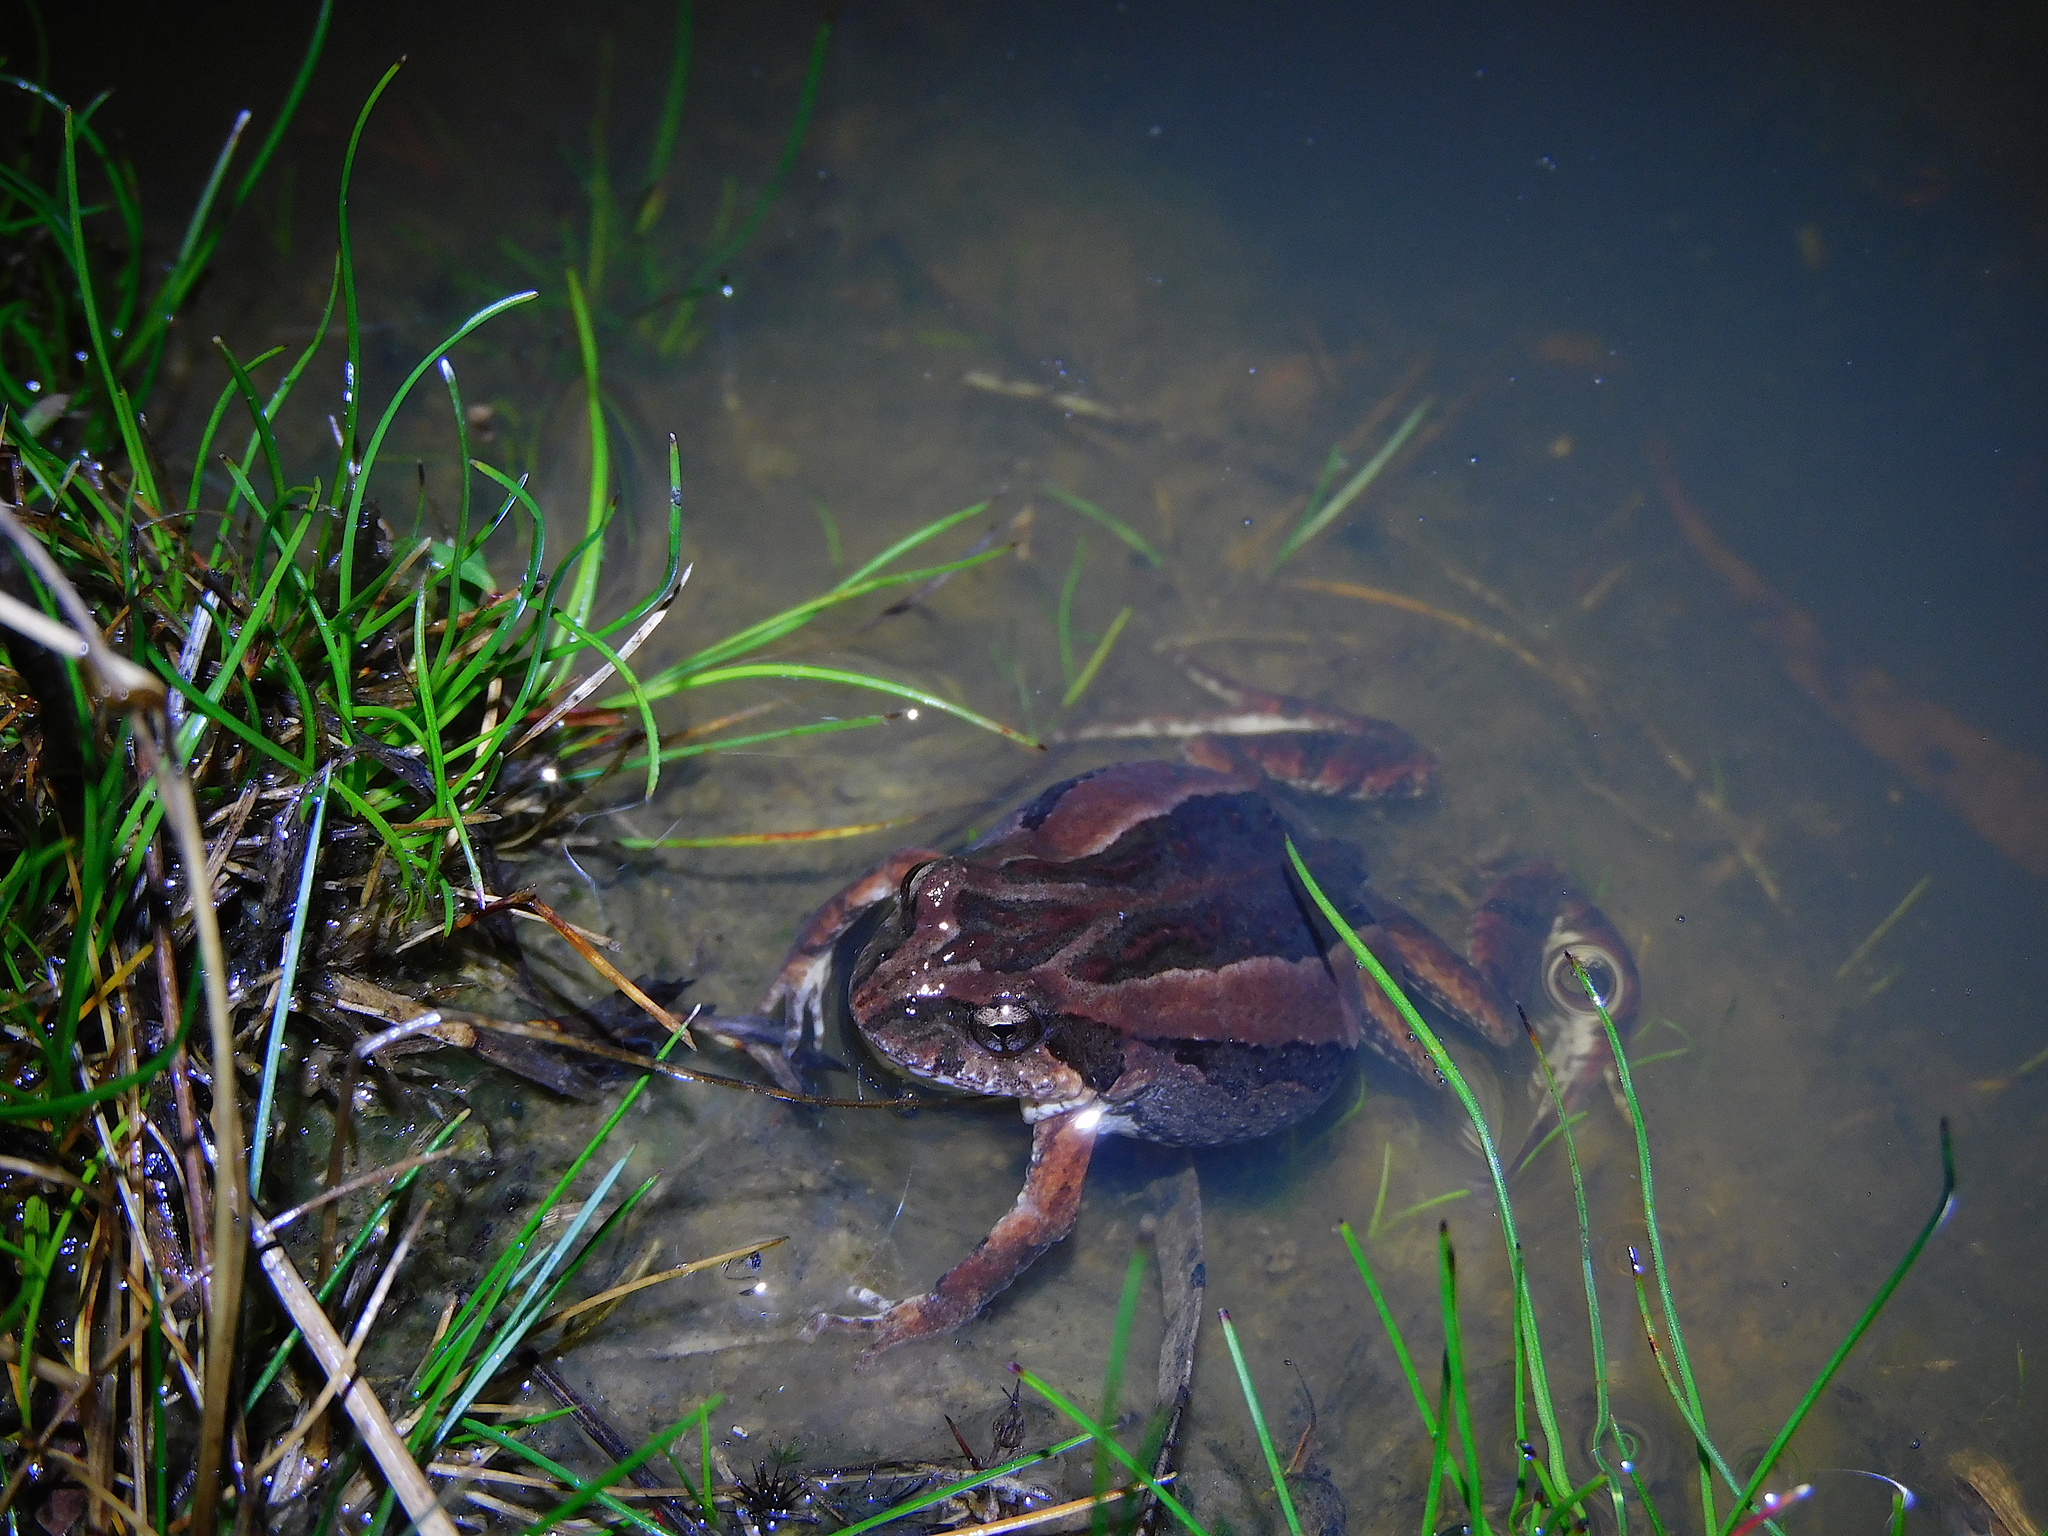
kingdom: Animalia
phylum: Chordata
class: Amphibia
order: Anura
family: Myobatrachidae
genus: Crinia
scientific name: Crinia signifera
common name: Brown froglet
